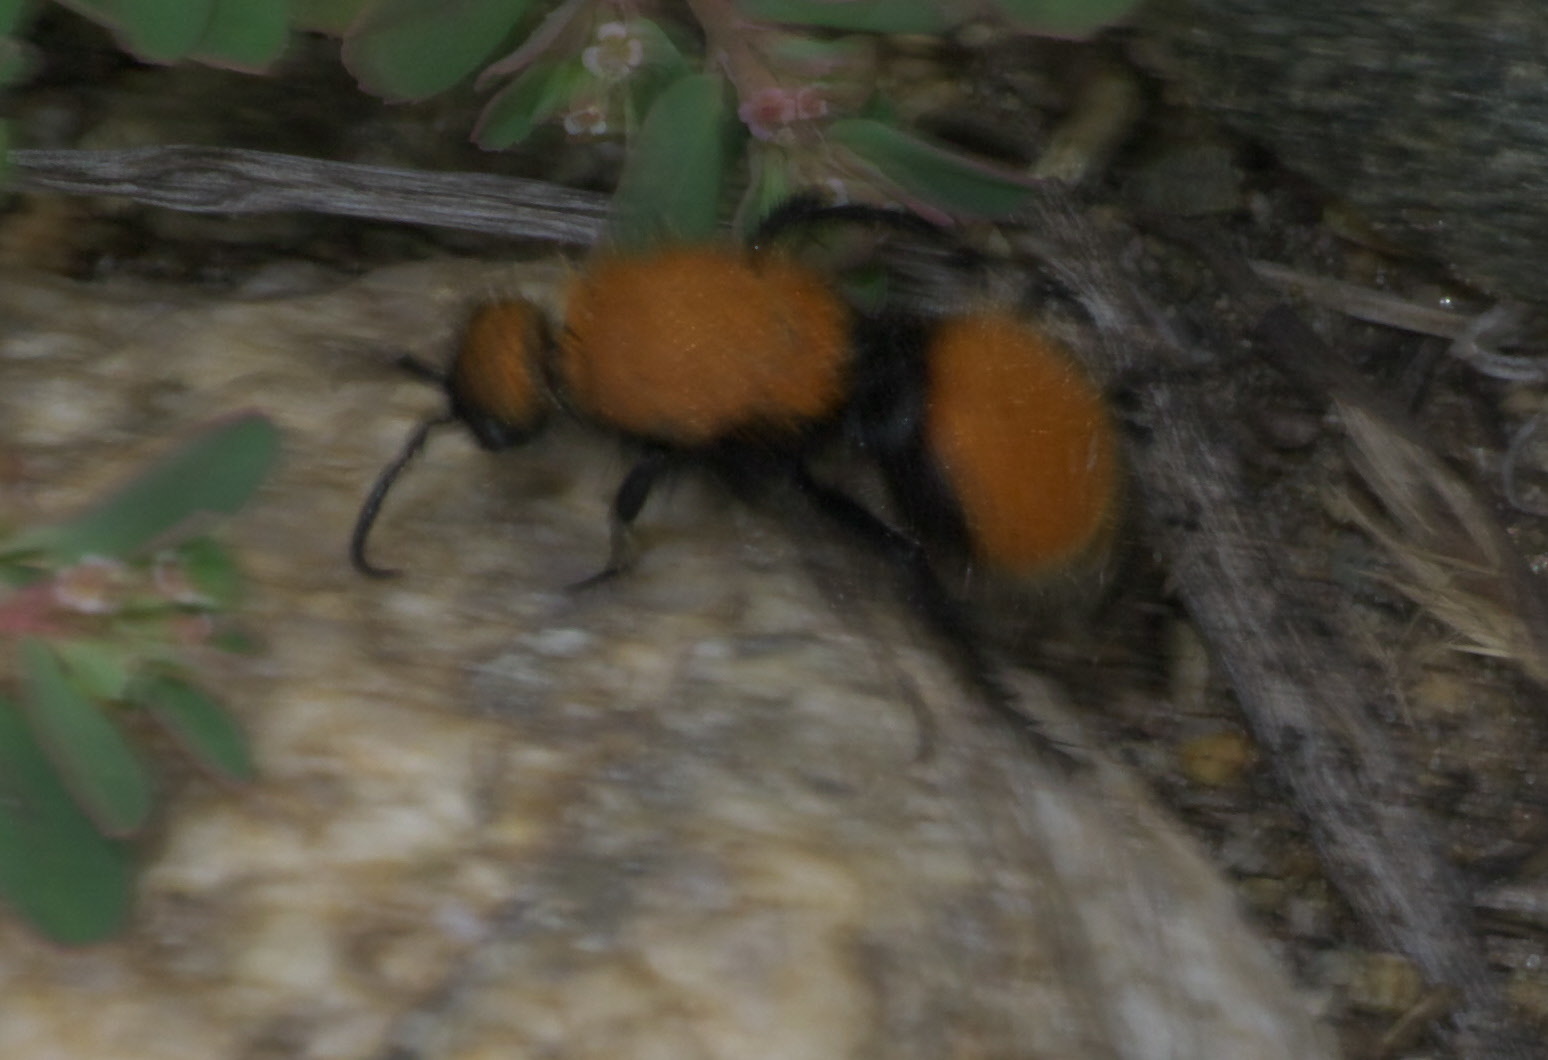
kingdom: Animalia
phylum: Arthropoda
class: Insecta
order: Hymenoptera
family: Mutillidae
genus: Dasymutilla
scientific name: Dasymutilla
